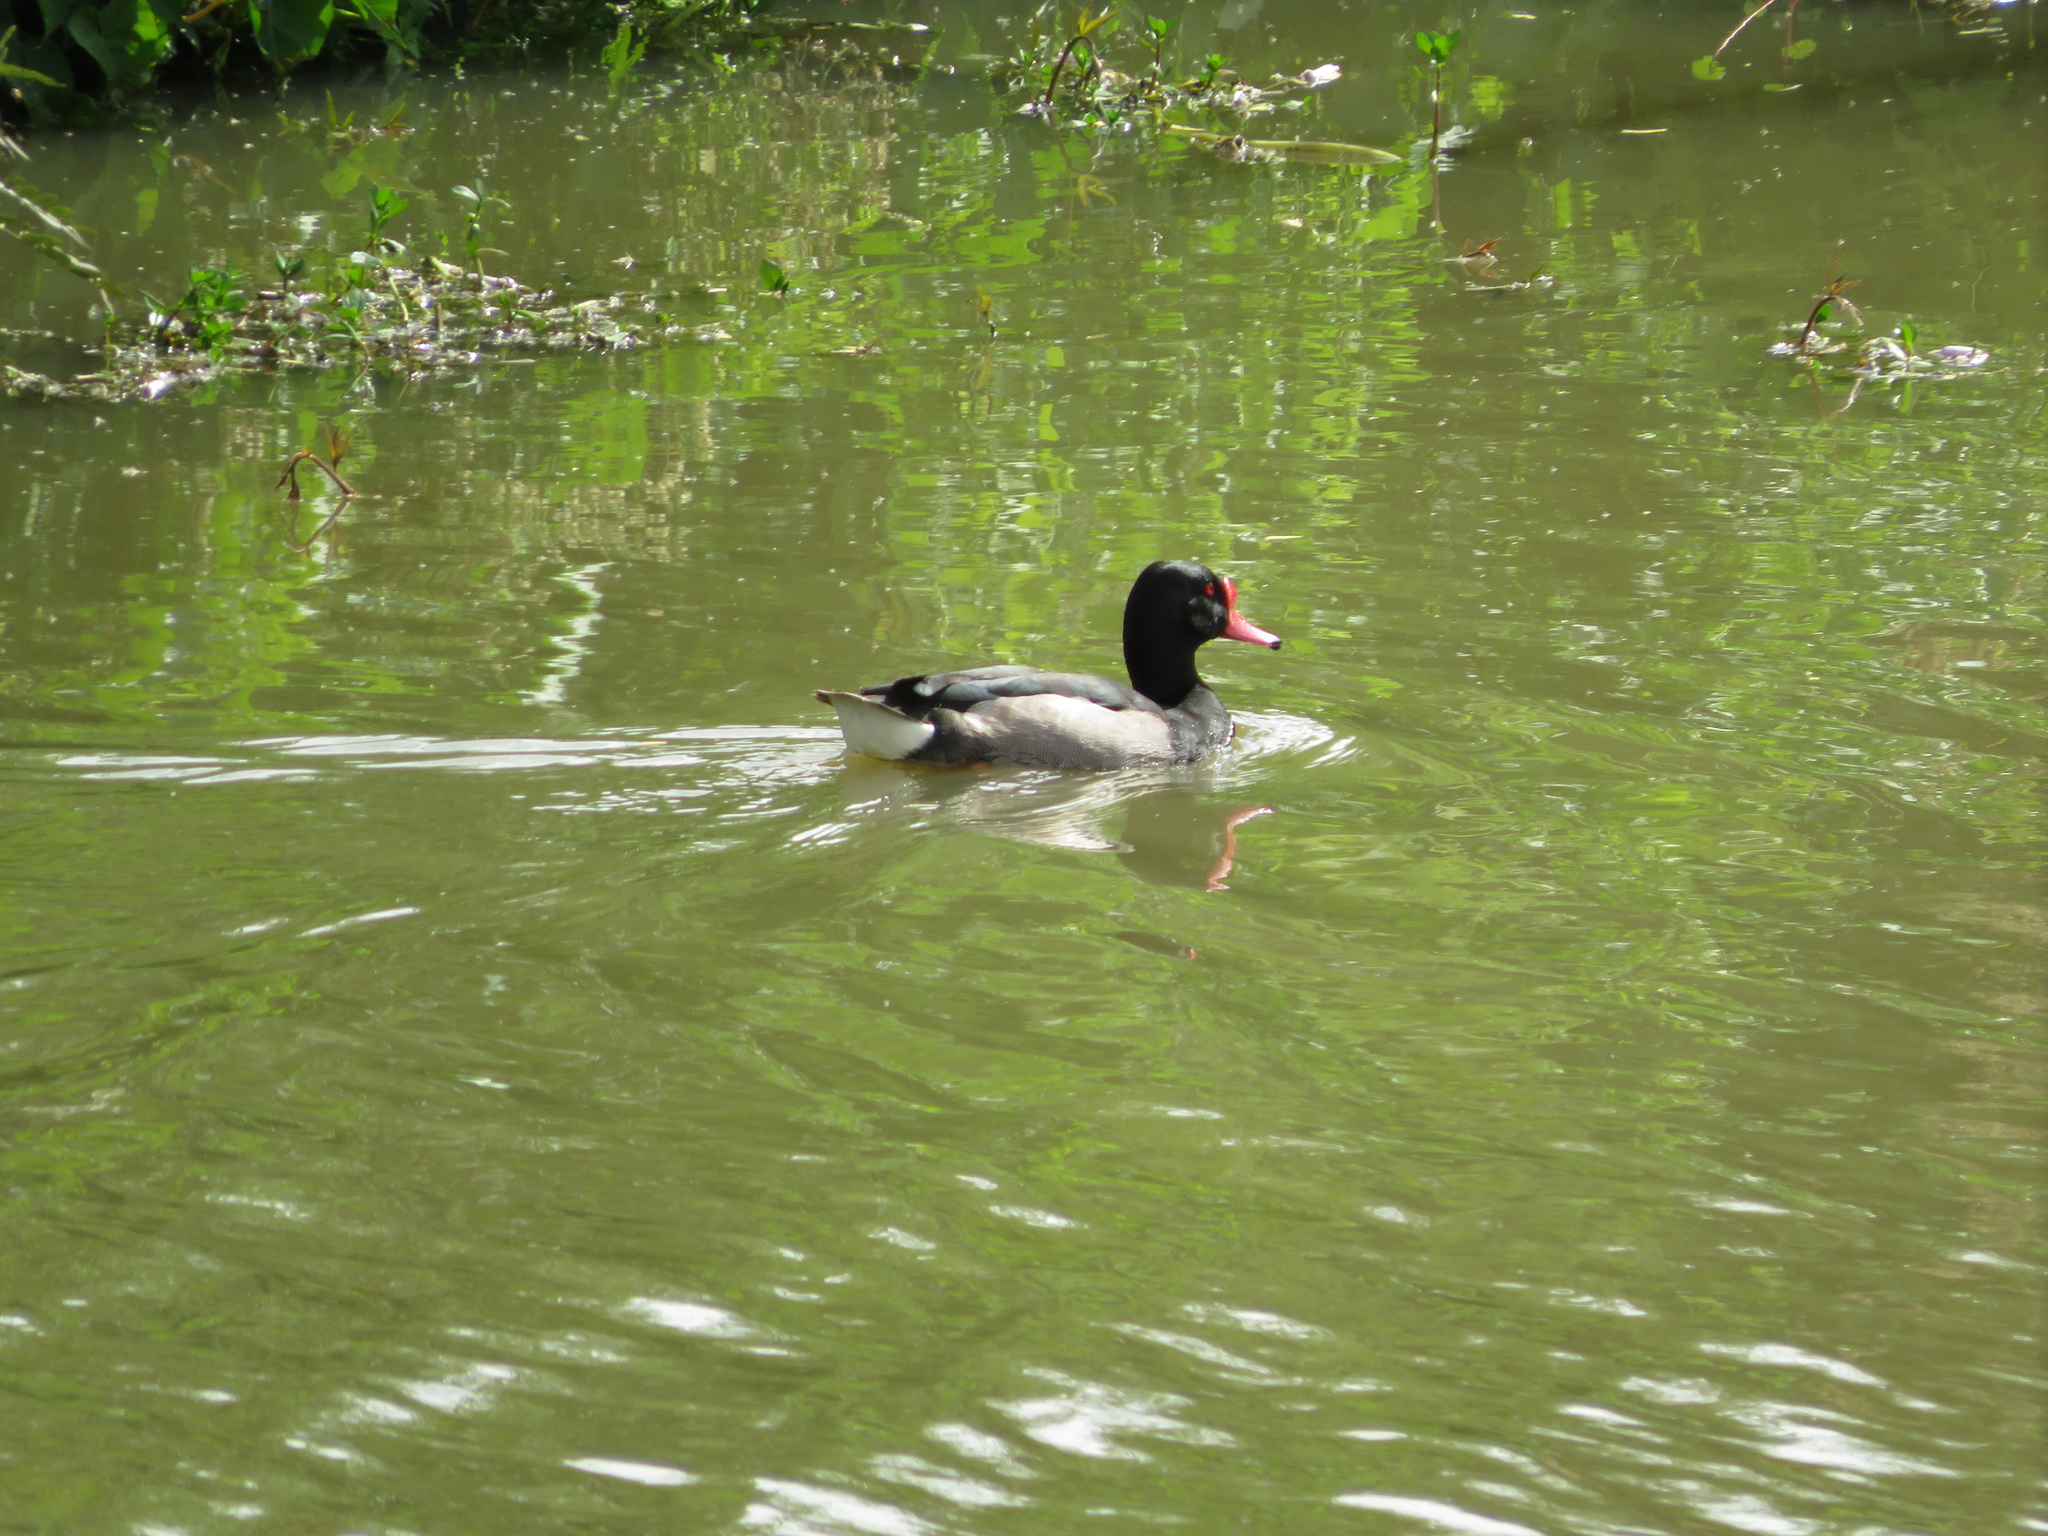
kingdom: Animalia
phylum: Chordata
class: Aves
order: Anseriformes
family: Anatidae
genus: Netta
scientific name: Netta peposaca
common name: Rosy-billed pochard
